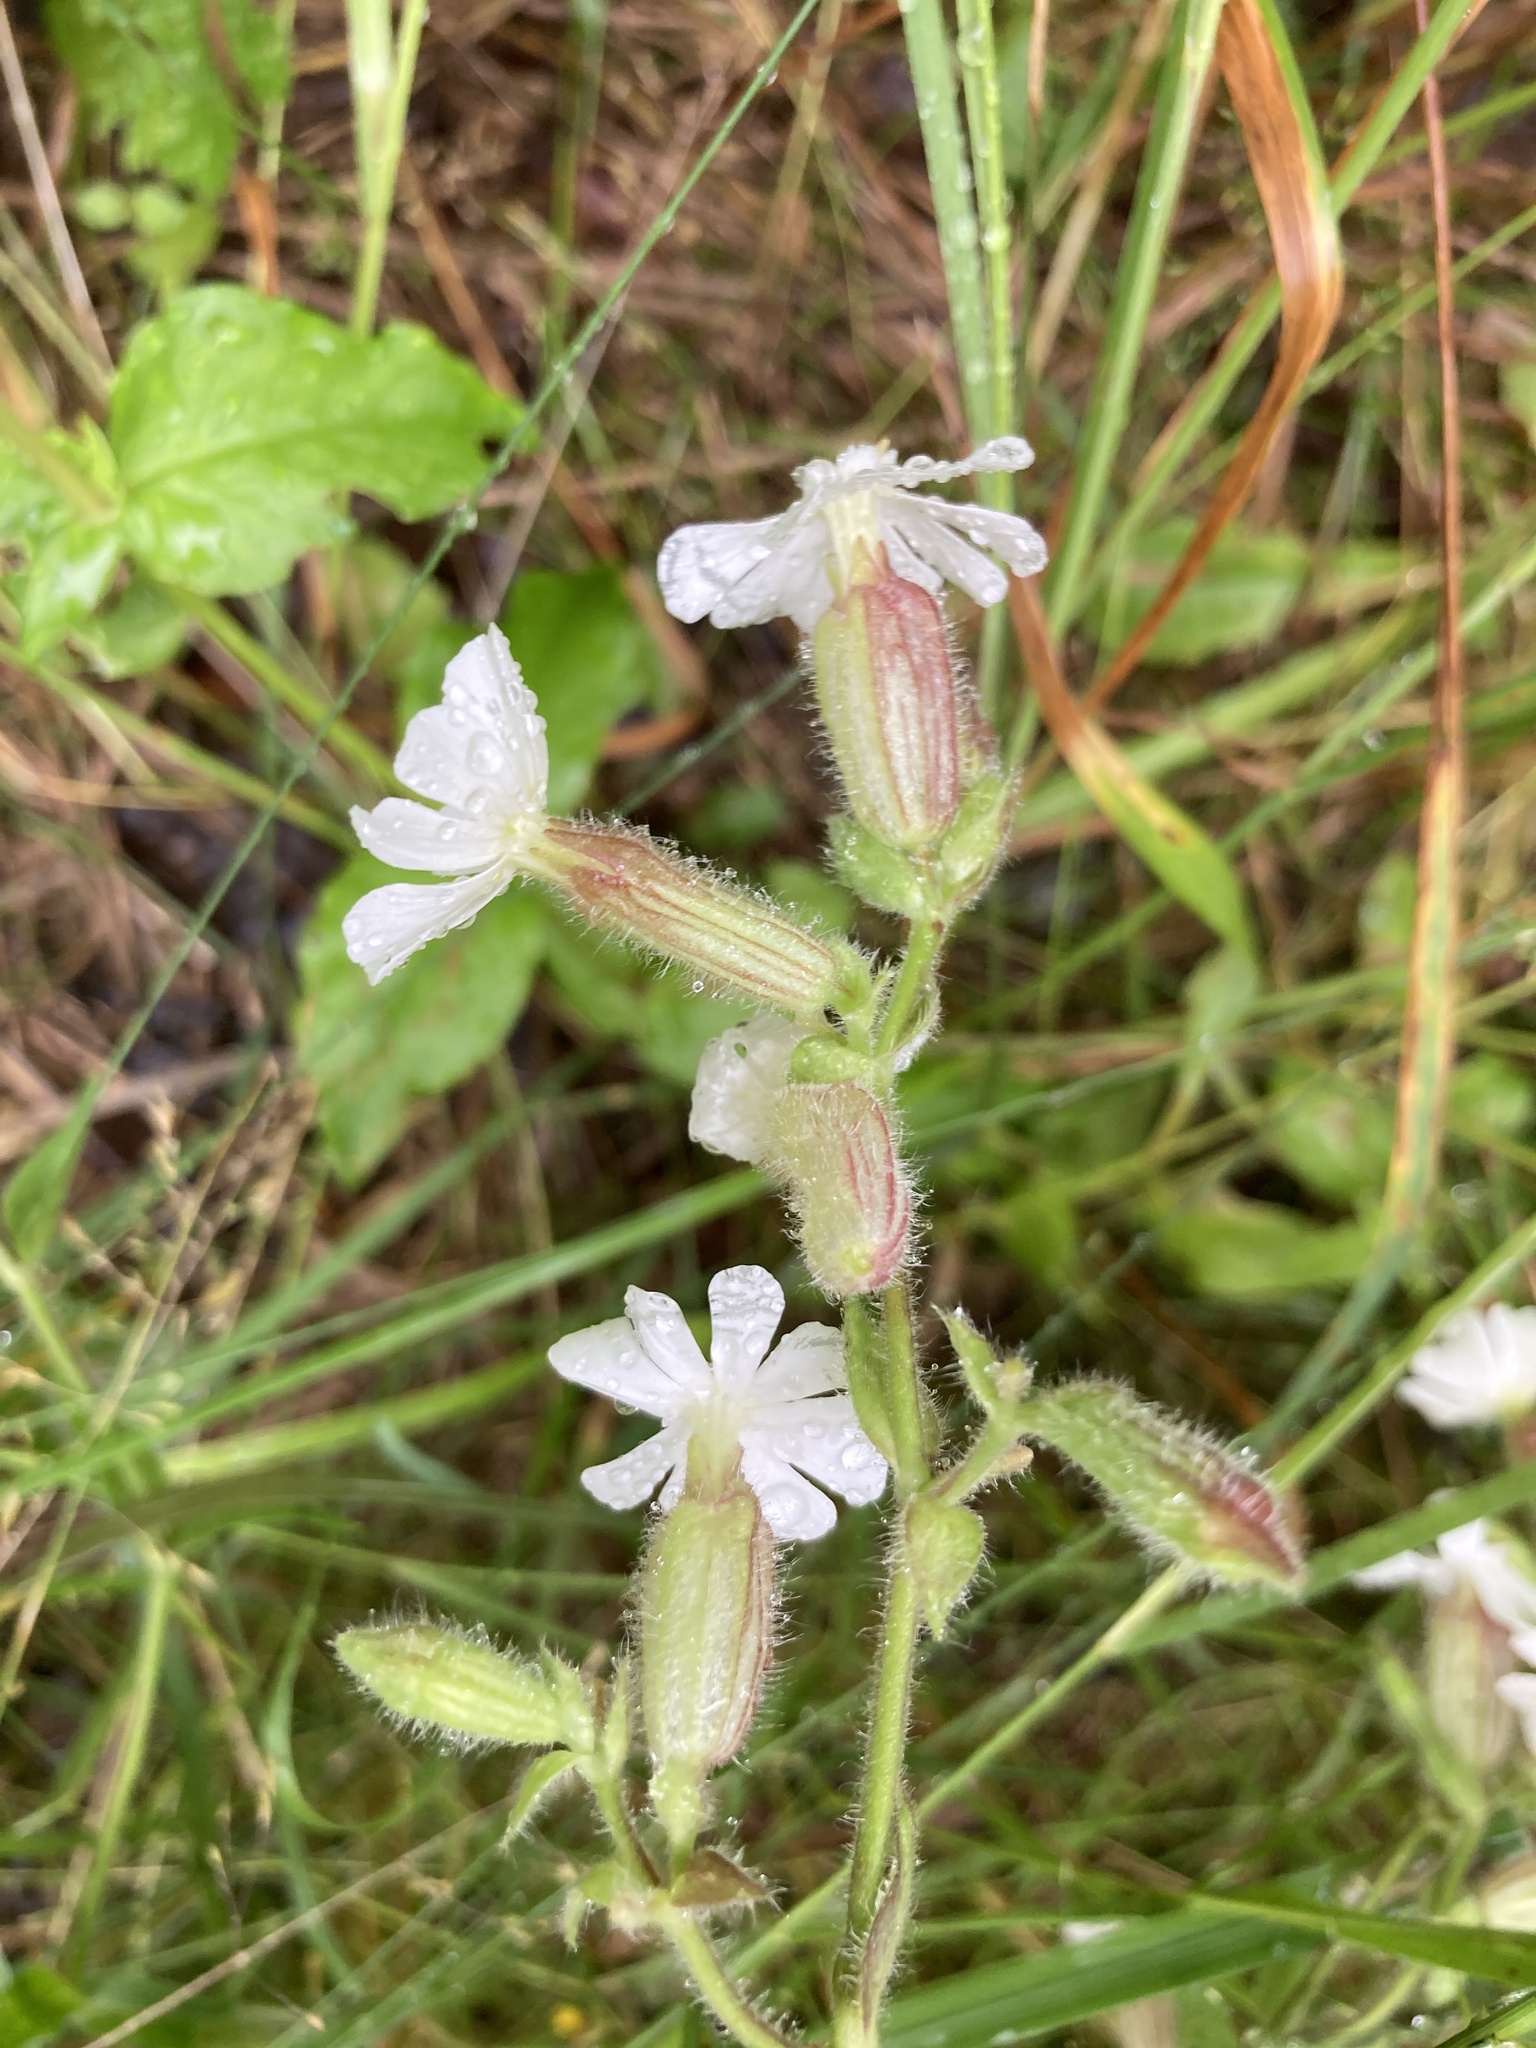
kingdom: Plantae
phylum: Tracheophyta
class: Magnoliopsida
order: Caryophyllales
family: Caryophyllaceae
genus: Silene
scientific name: Silene latifolia
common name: White campion
